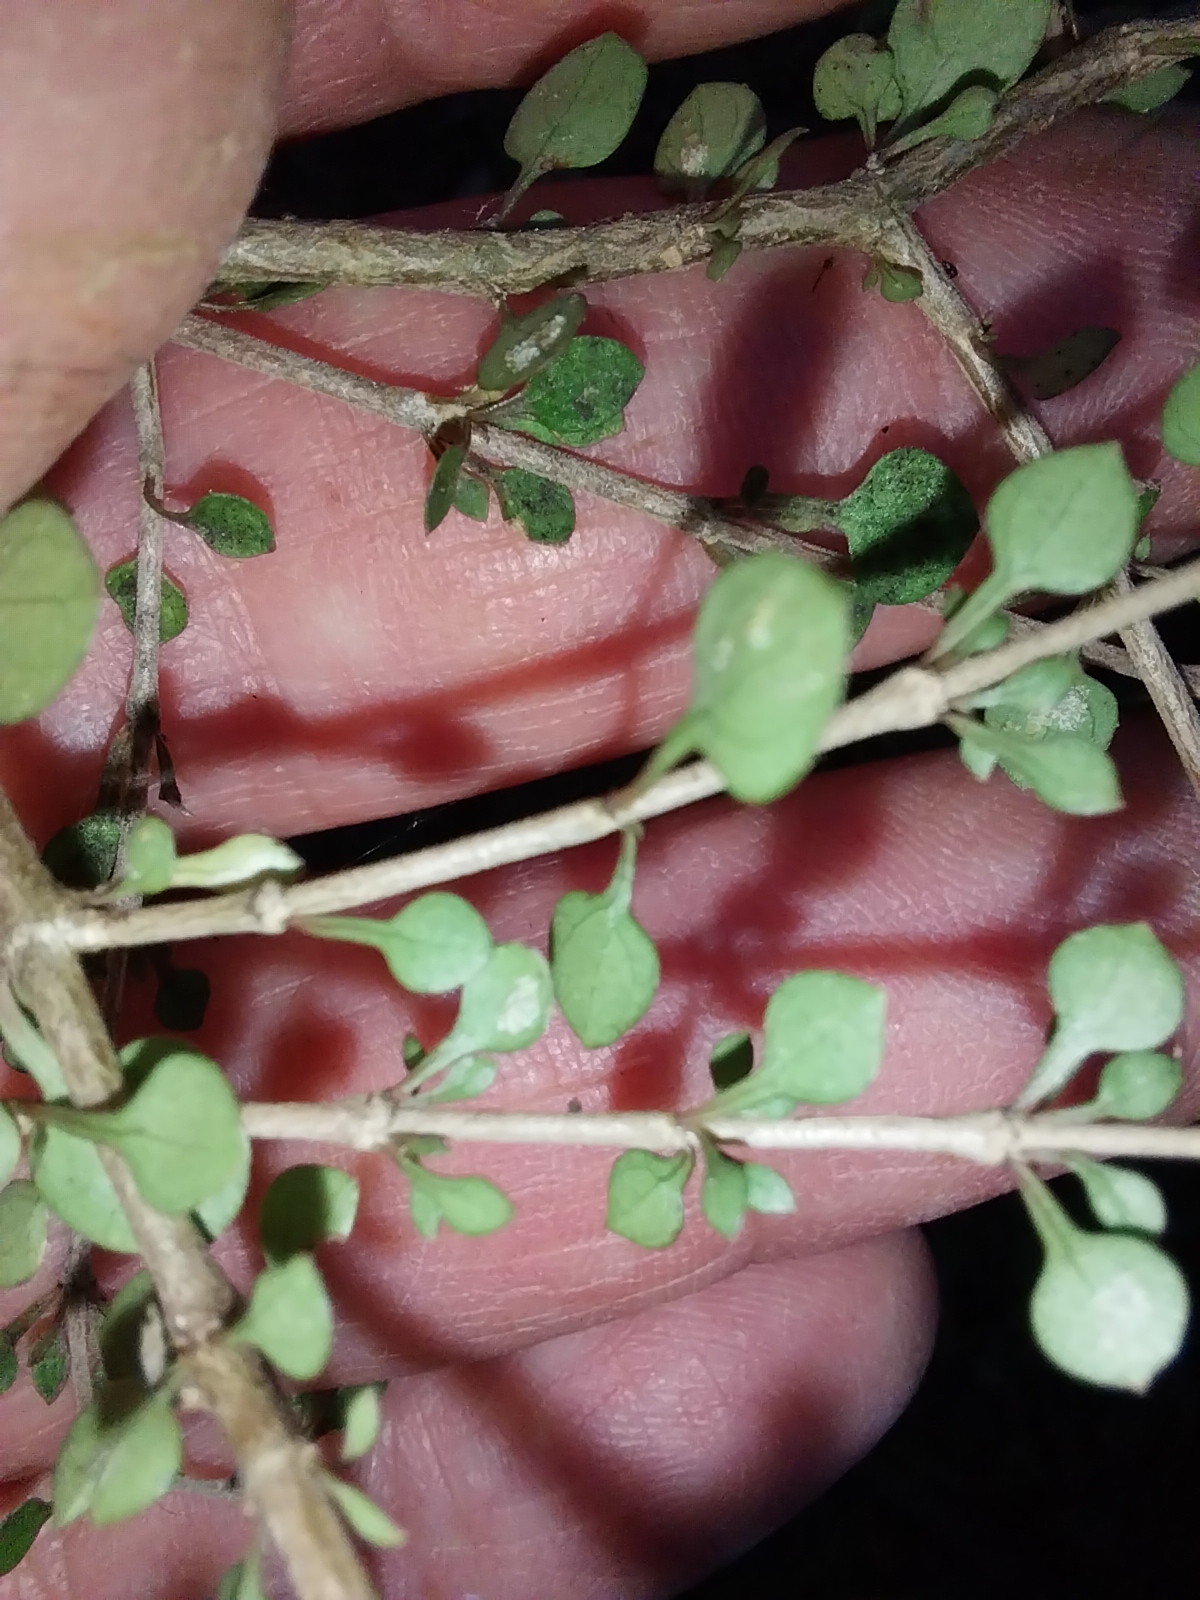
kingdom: Plantae
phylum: Tracheophyta
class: Magnoliopsida
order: Gentianales
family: Rubiaceae
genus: Coprosma
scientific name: Coprosma virescens
